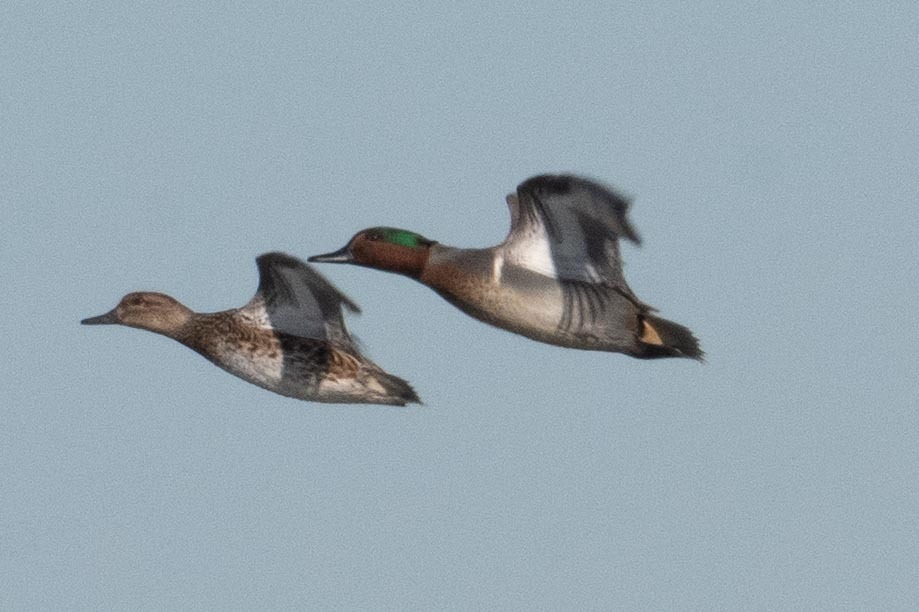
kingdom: Animalia
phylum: Chordata
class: Aves
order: Anseriformes
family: Anatidae
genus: Anas
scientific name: Anas crecca
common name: Eurasian teal
